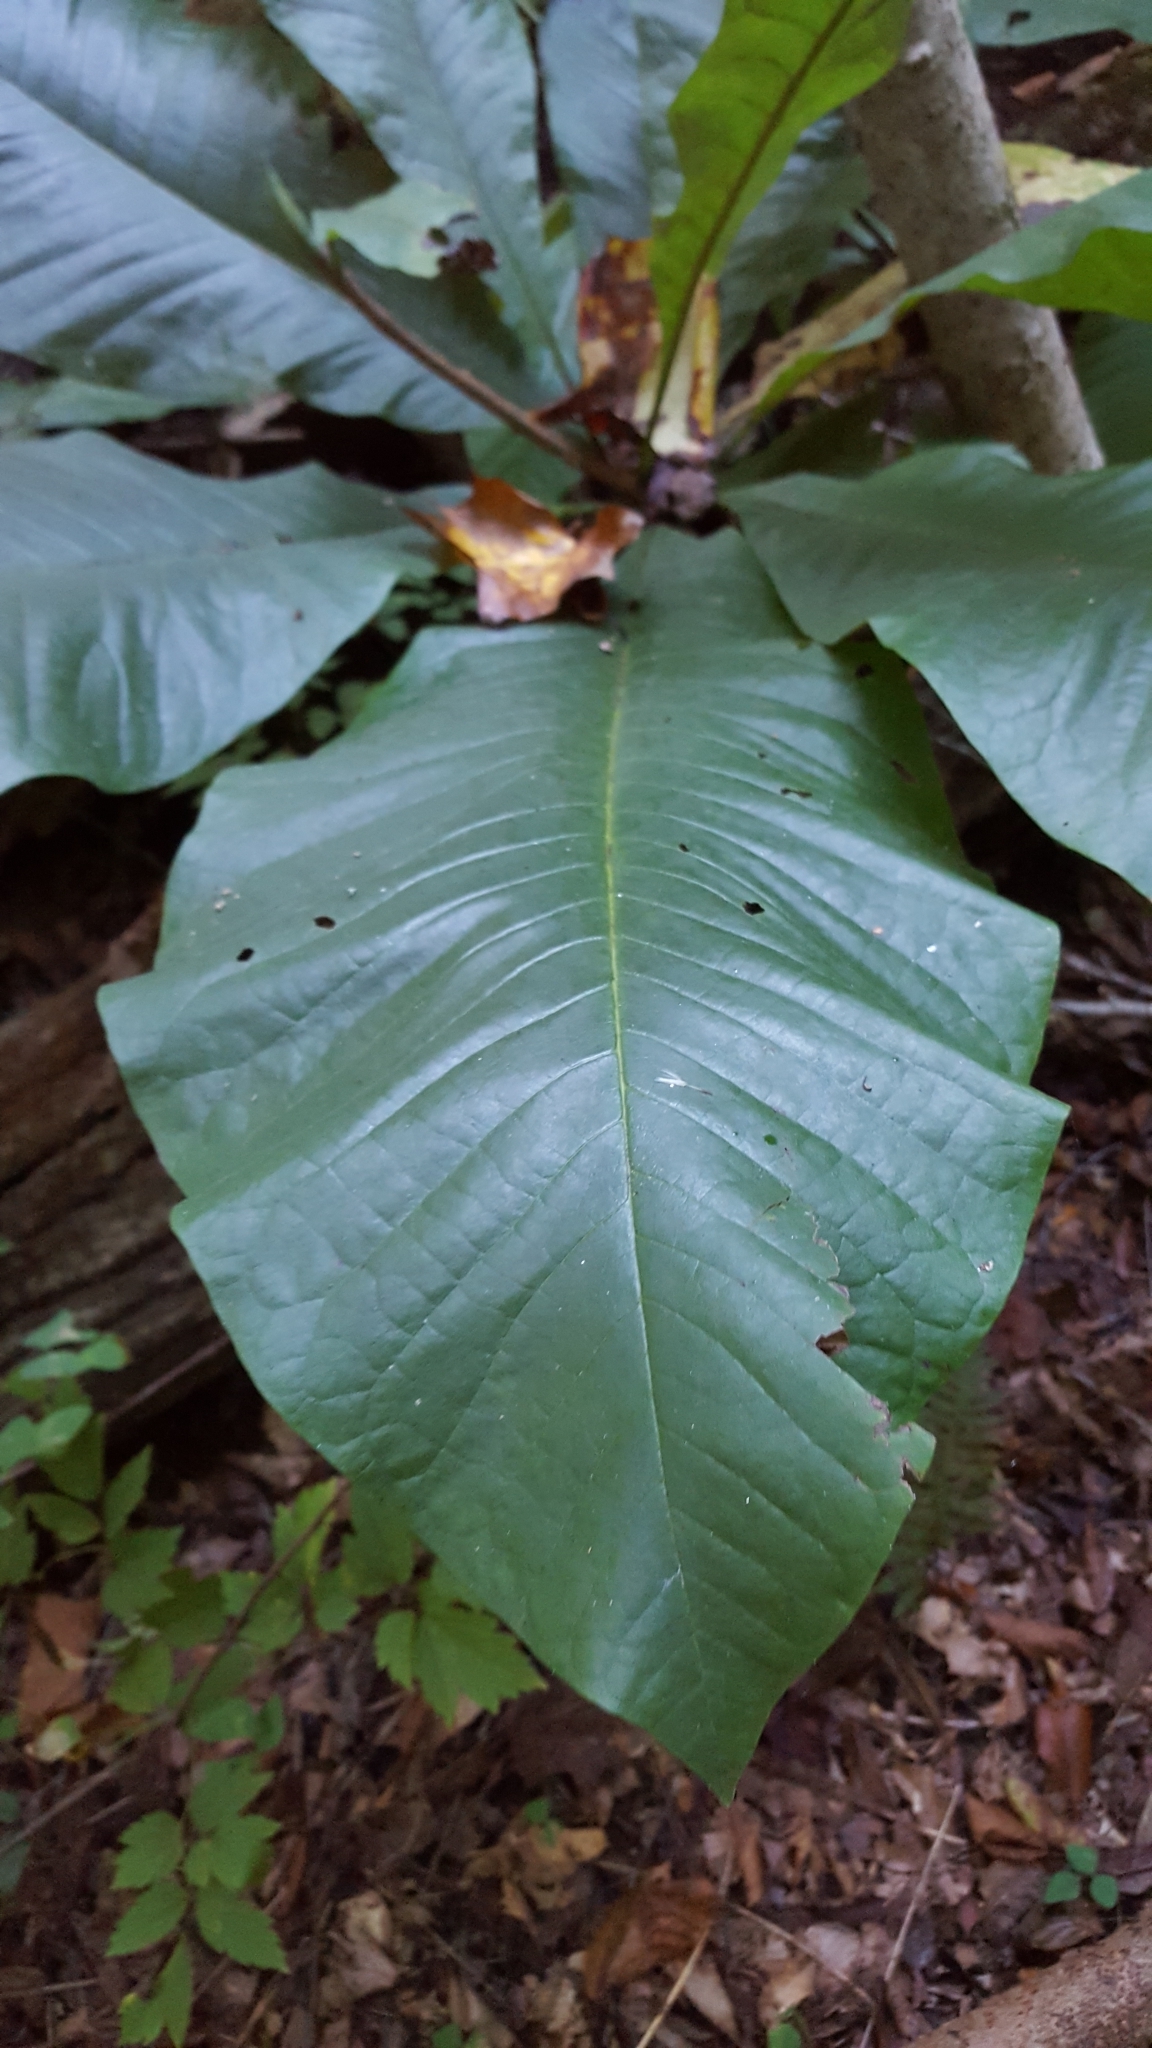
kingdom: Plantae
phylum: Tracheophyta
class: Magnoliopsida
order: Magnoliales
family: Magnoliaceae
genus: Magnolia
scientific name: Magnolia tripetala
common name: Umbrella magnolia
